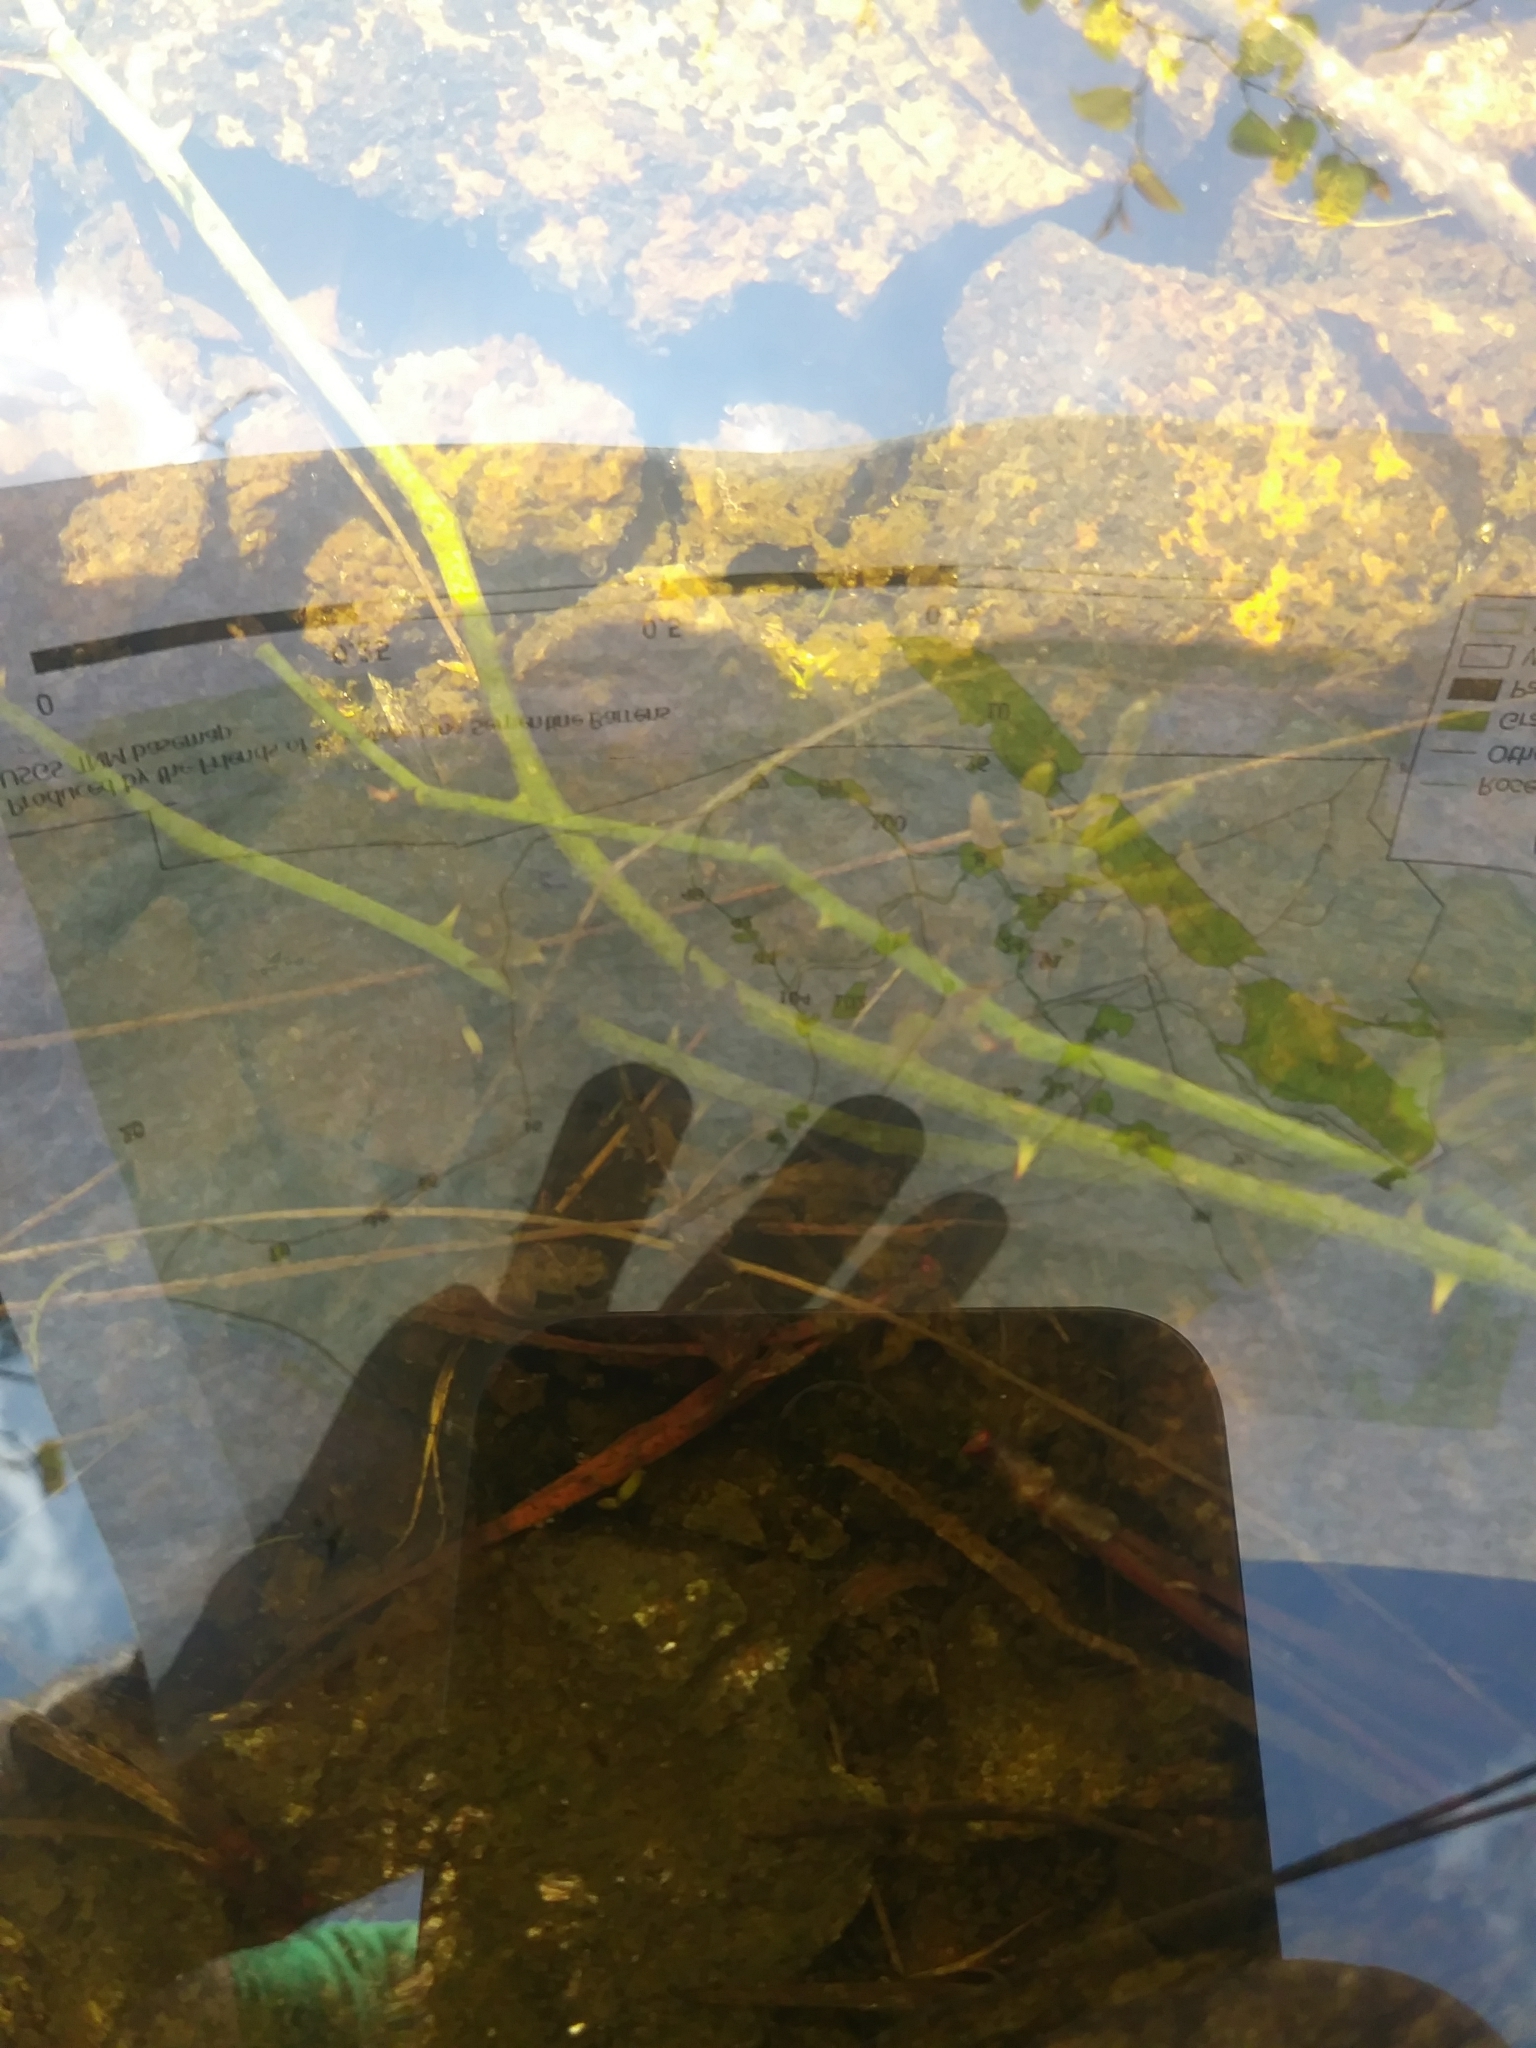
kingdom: Plantae
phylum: Tracheophyta
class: Magnoliopsida
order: Caryophyllales
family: Montiaceae
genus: Phemeranthus
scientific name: Phemeranthus teretifolius
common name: Quill fameflower
